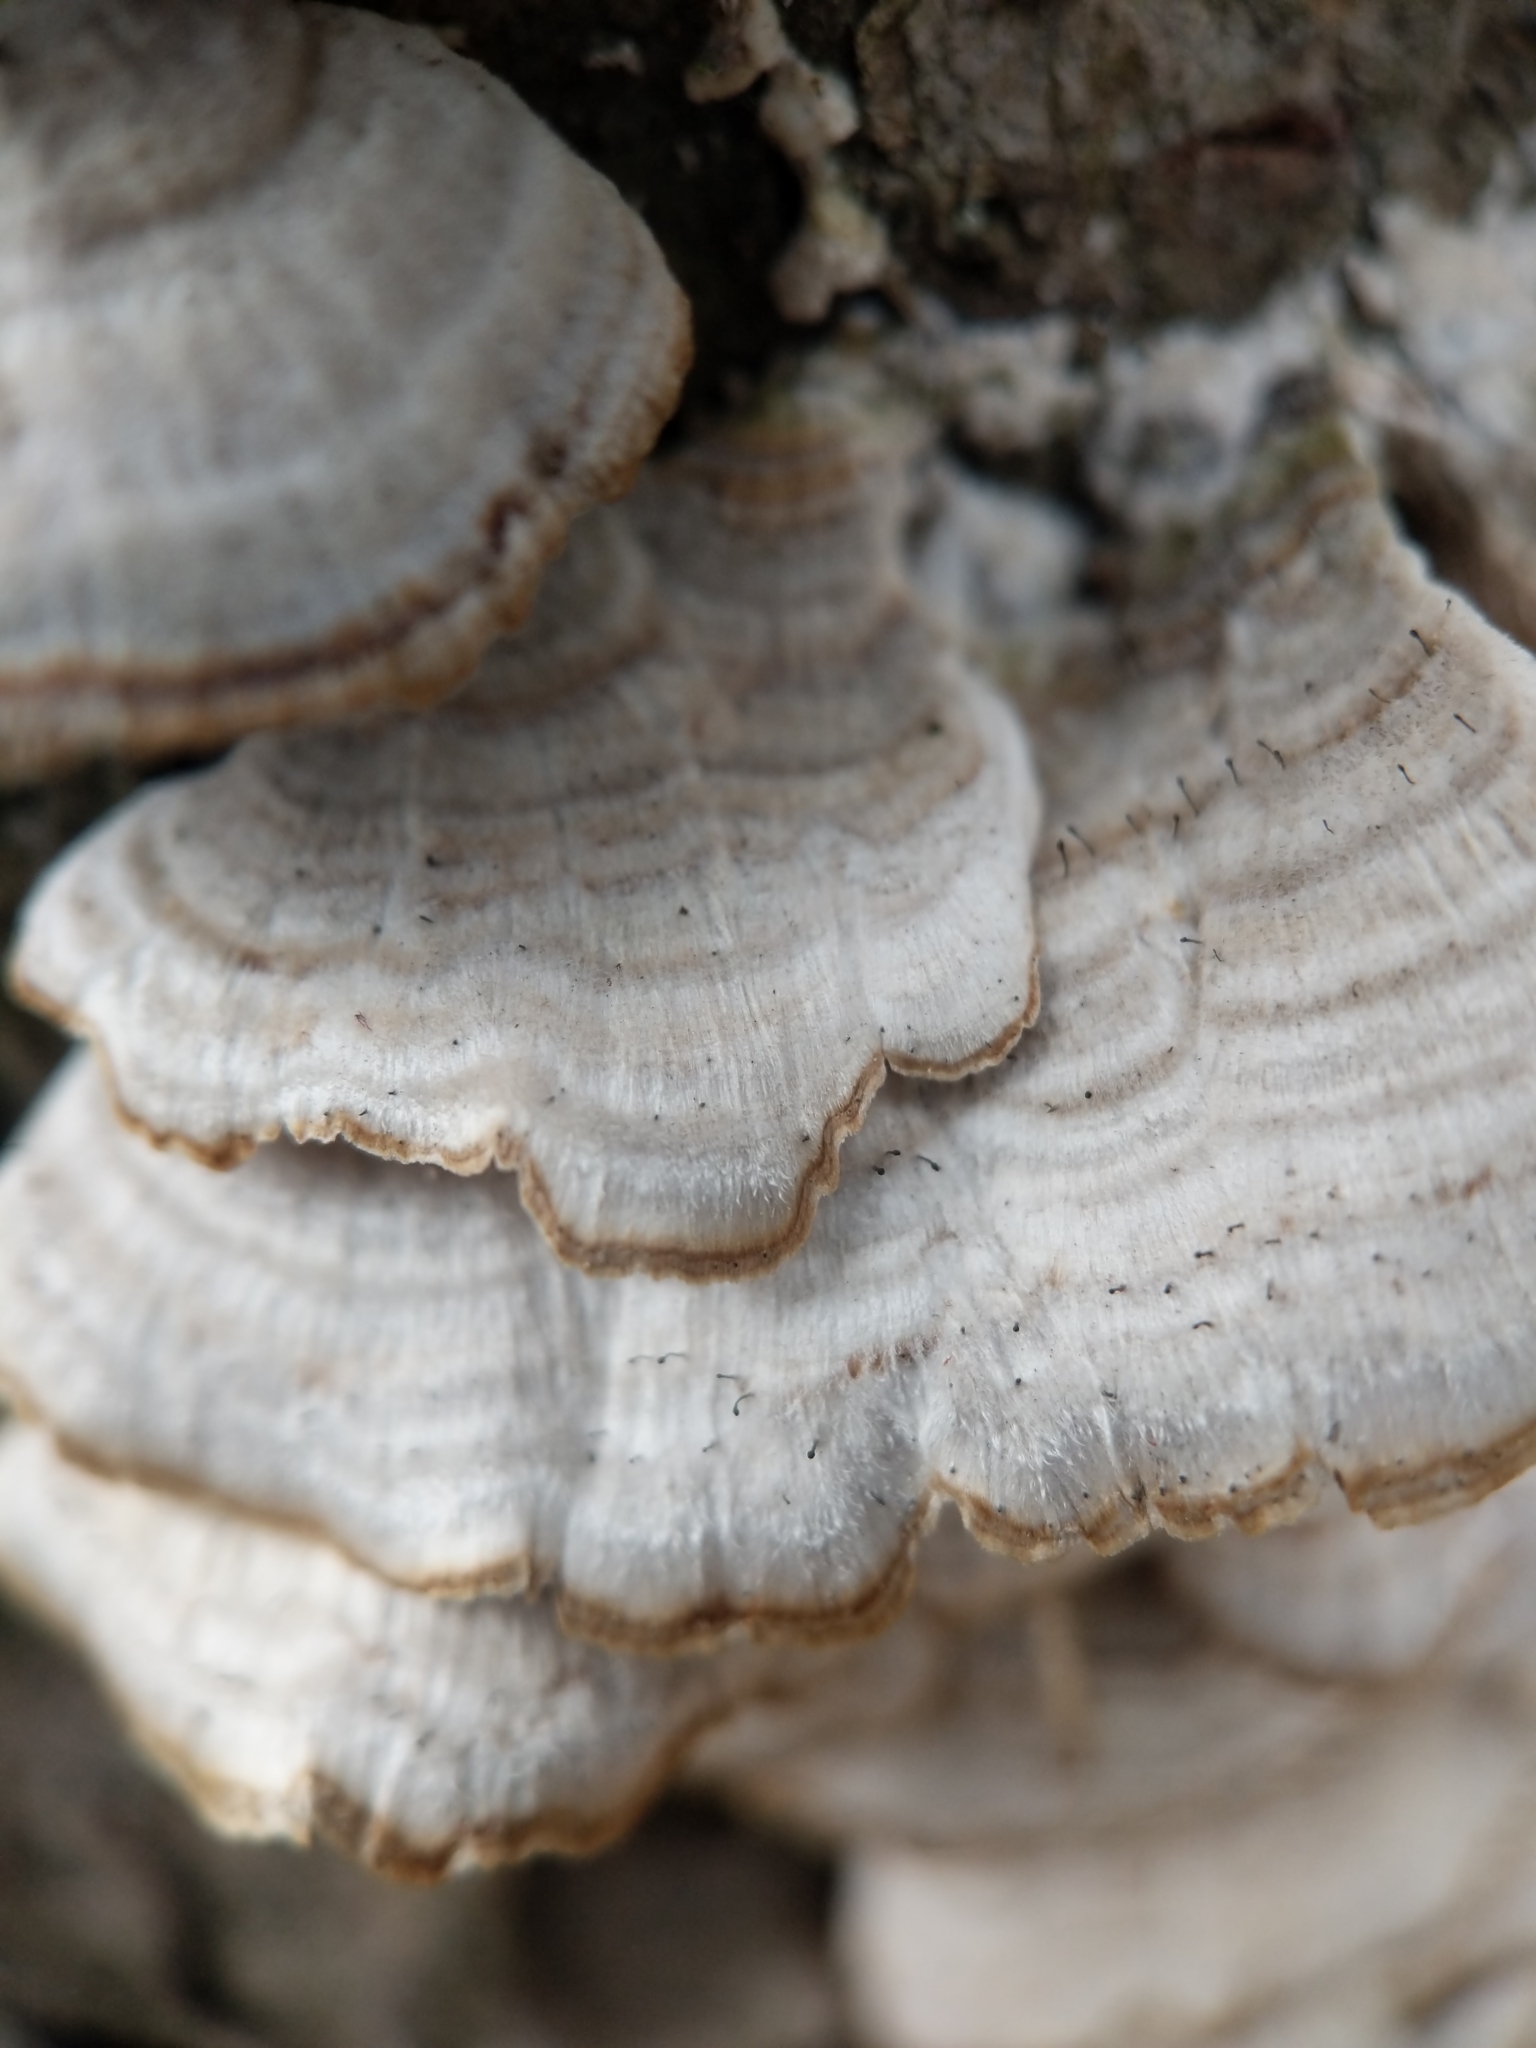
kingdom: Fungi
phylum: Ascomycota
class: Eurotiomycetes
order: Mycocaliciales
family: Mycocaliciaceae
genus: Phaeocalicium
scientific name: Phaeocalicium polyporaeum
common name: Fairy pins
